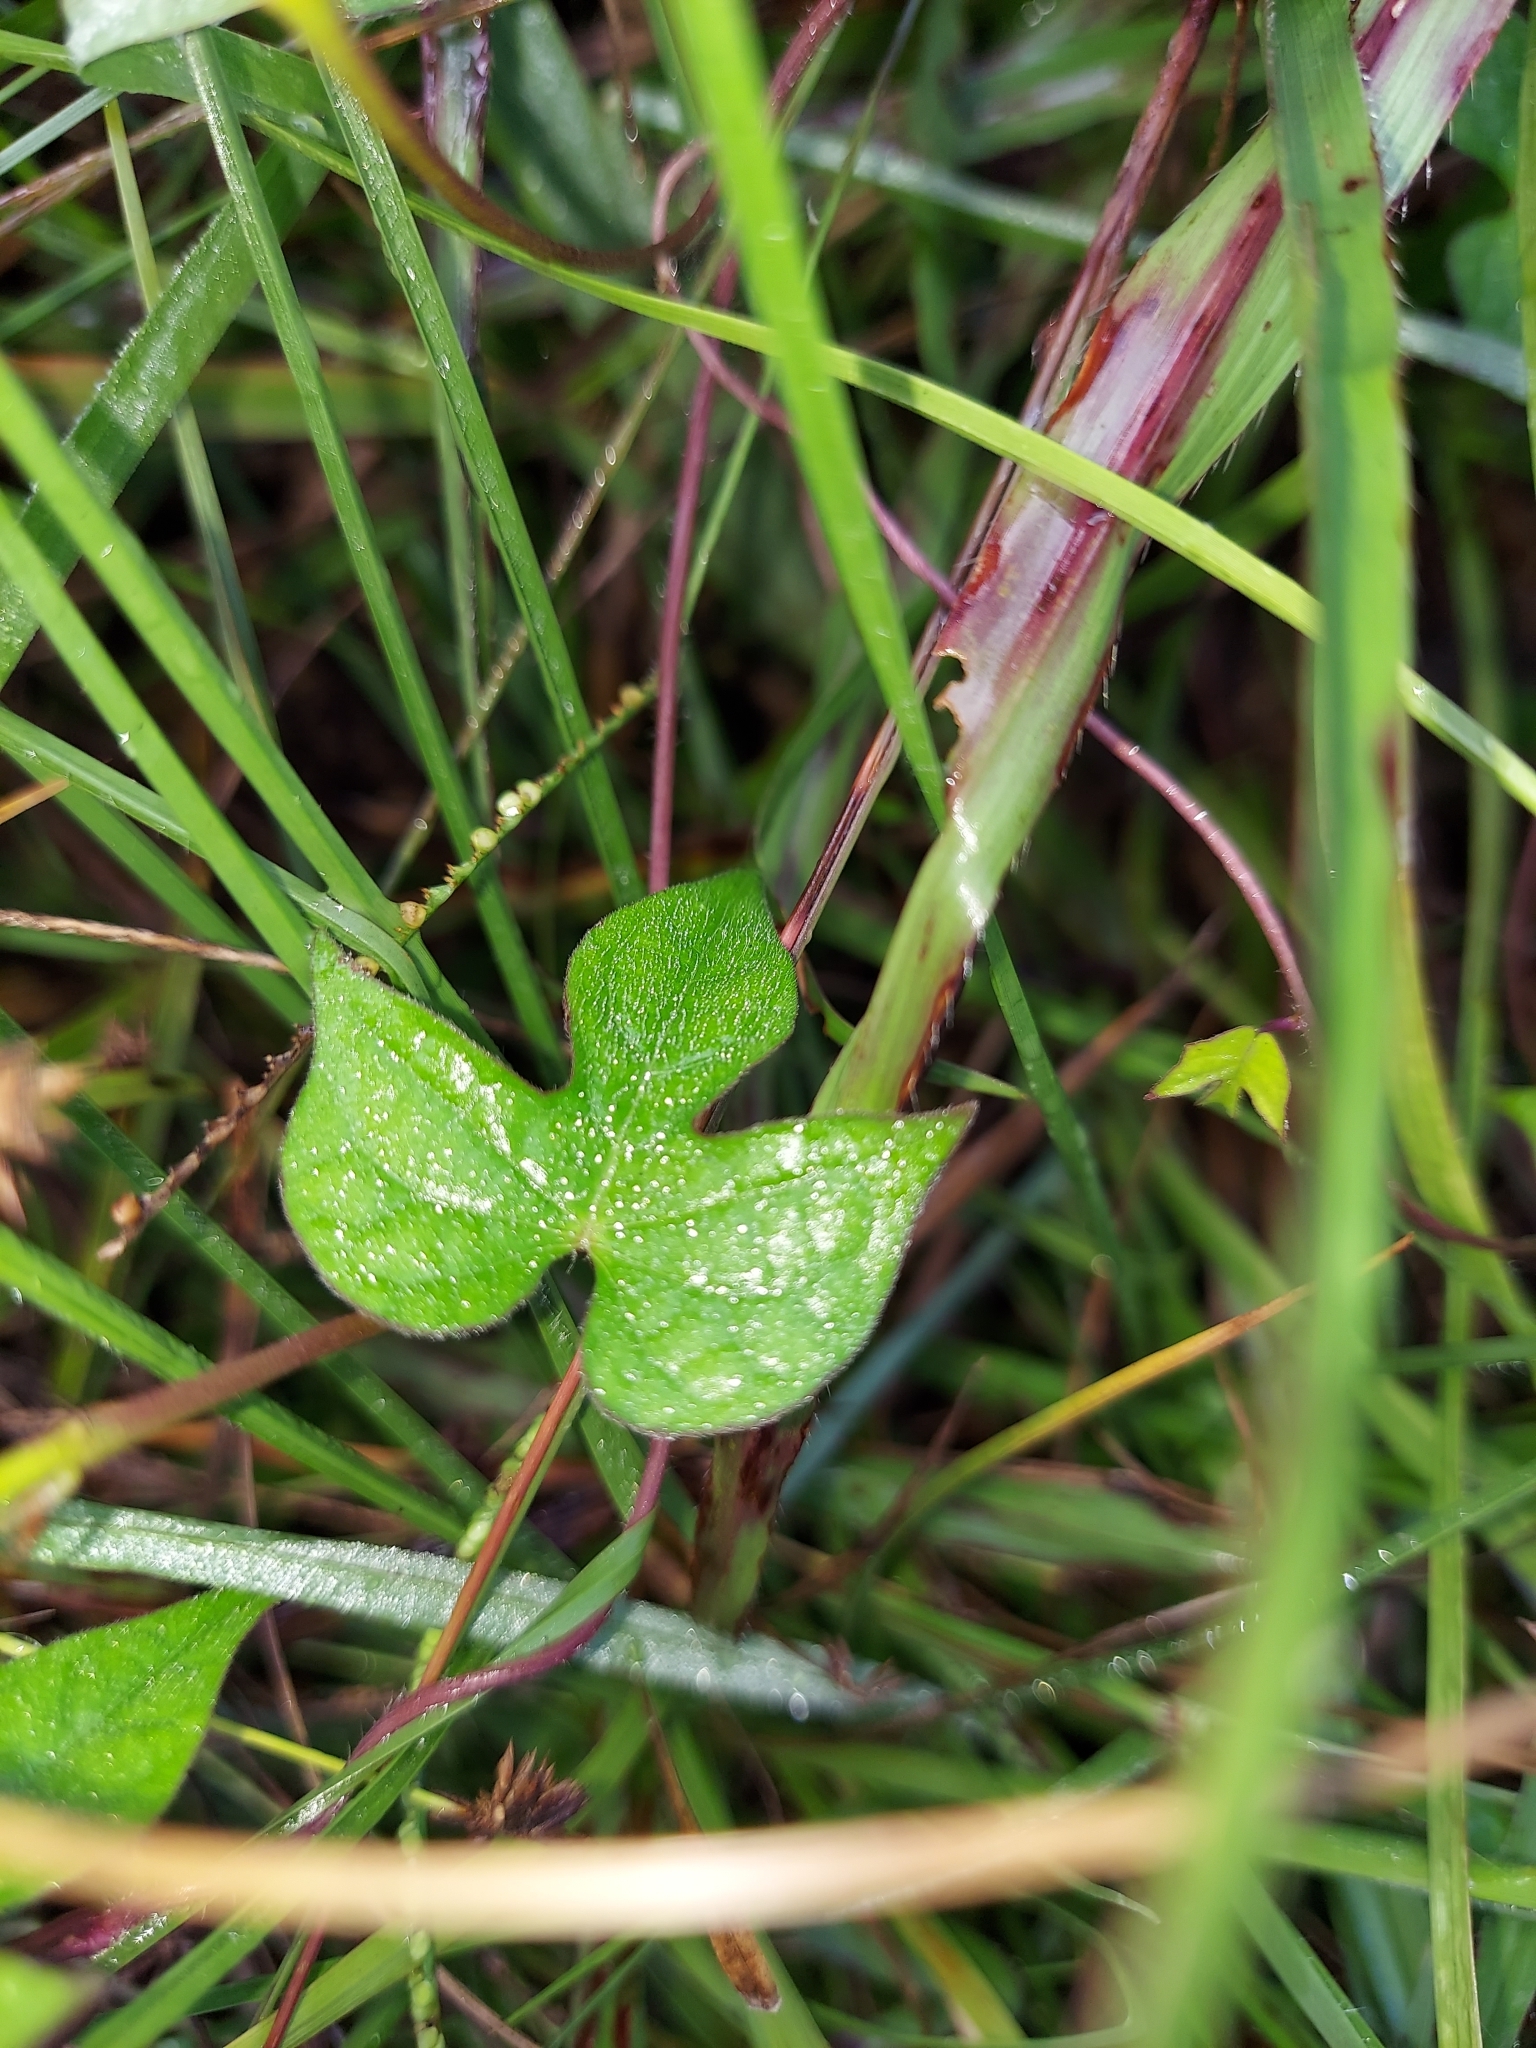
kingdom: Plantae
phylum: Tracheophyta
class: Magnoliopsida
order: Solanales
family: Convolvulaceae
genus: Ipomoea
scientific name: Ipomoea cordatotriloba
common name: Cotton morning glory
